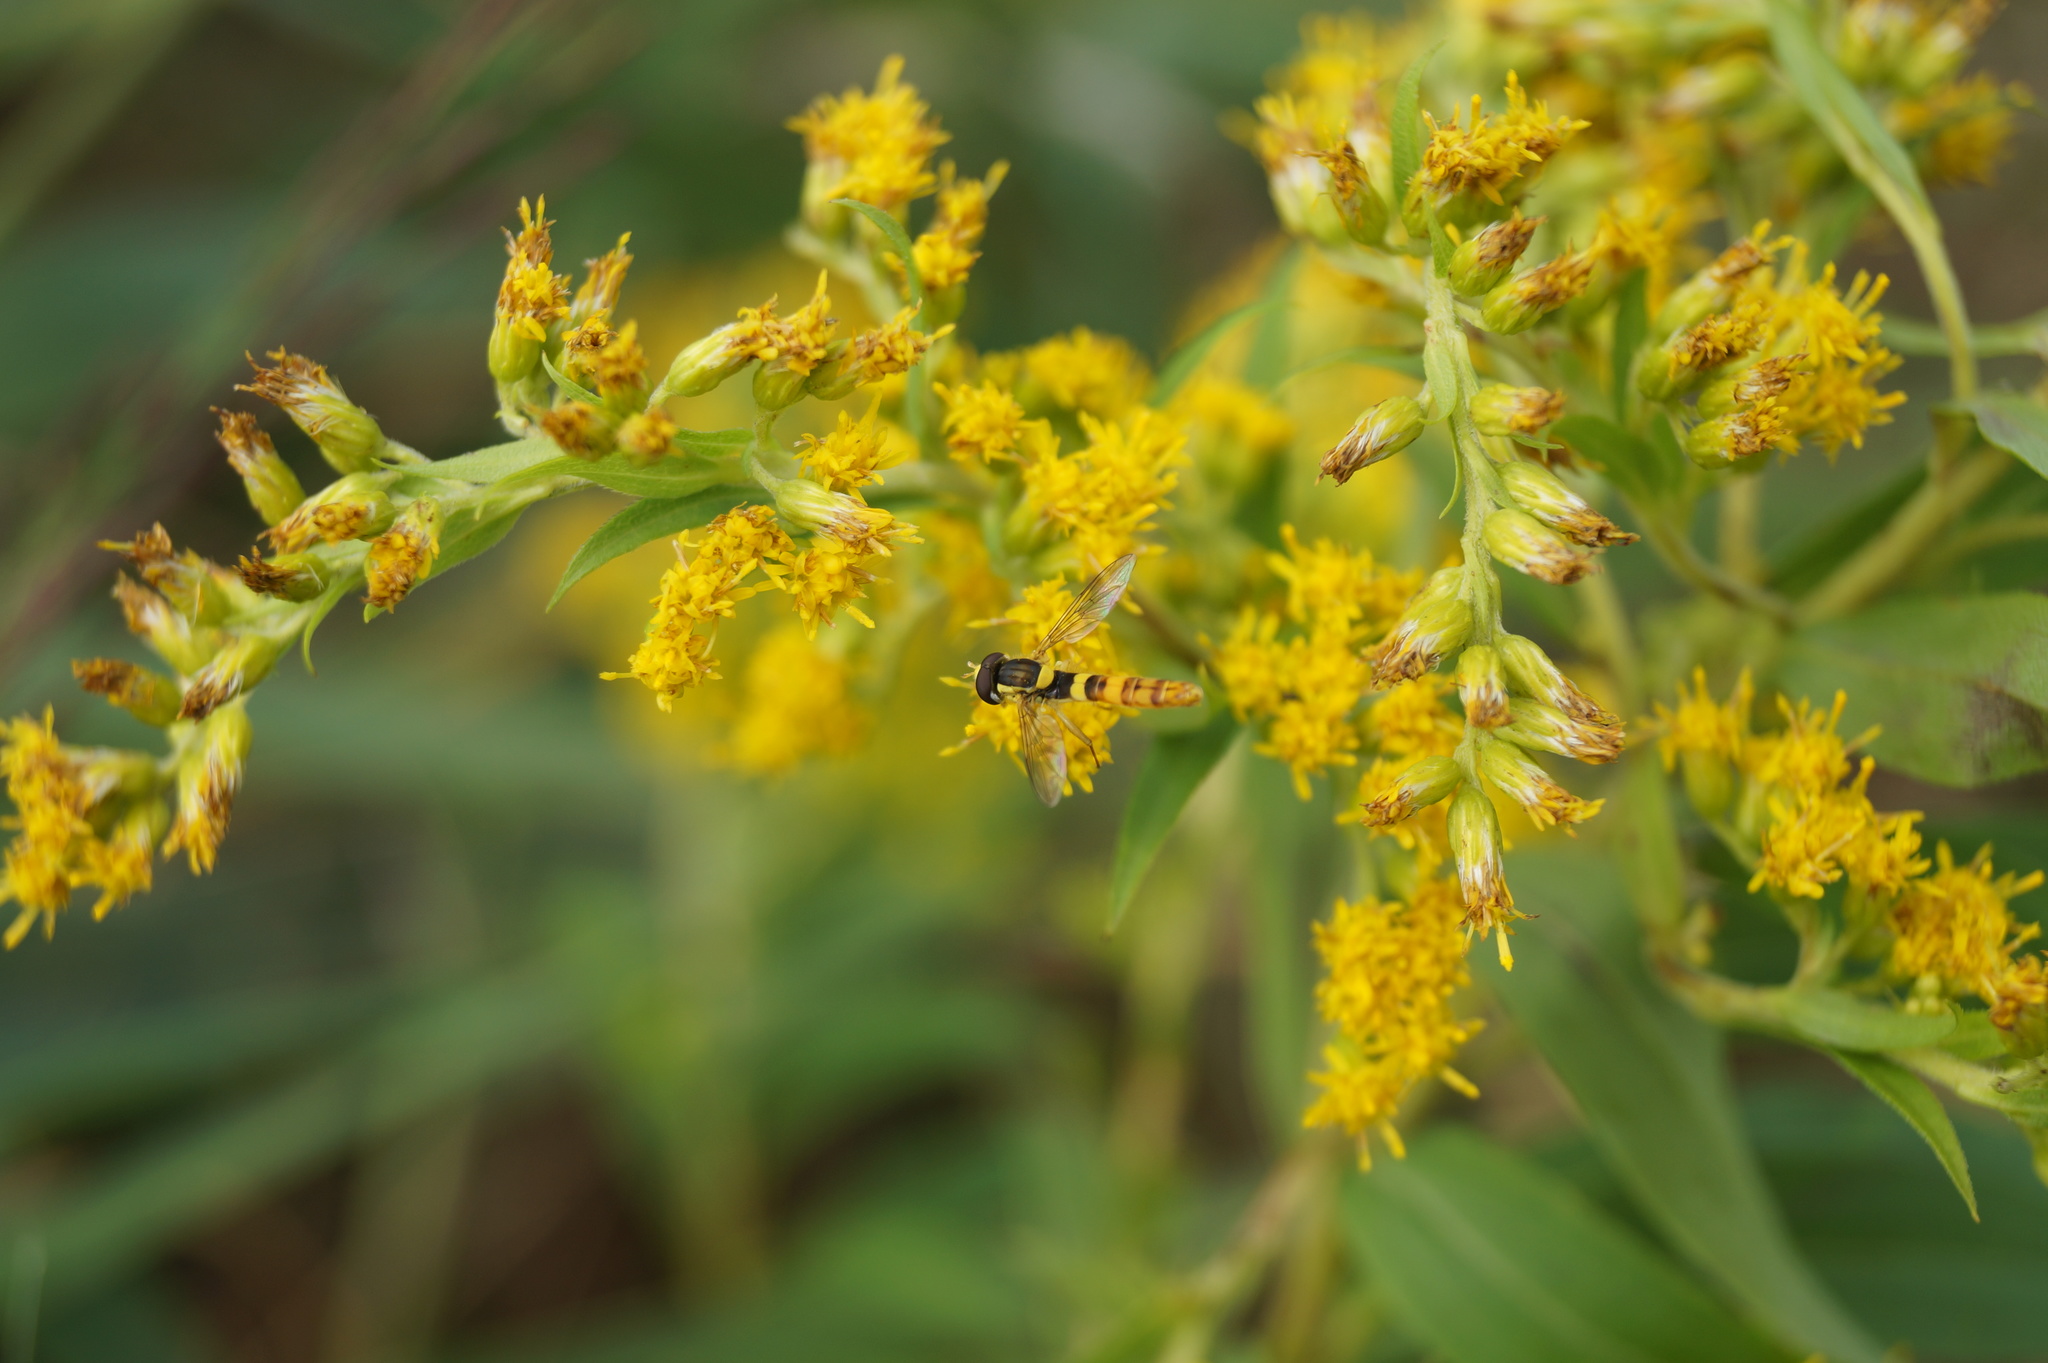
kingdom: Animalia
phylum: Arthropoda
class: Insecta
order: Diptera
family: Syrphidae
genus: Sphaerophoria
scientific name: Sphaerophoria scripta
